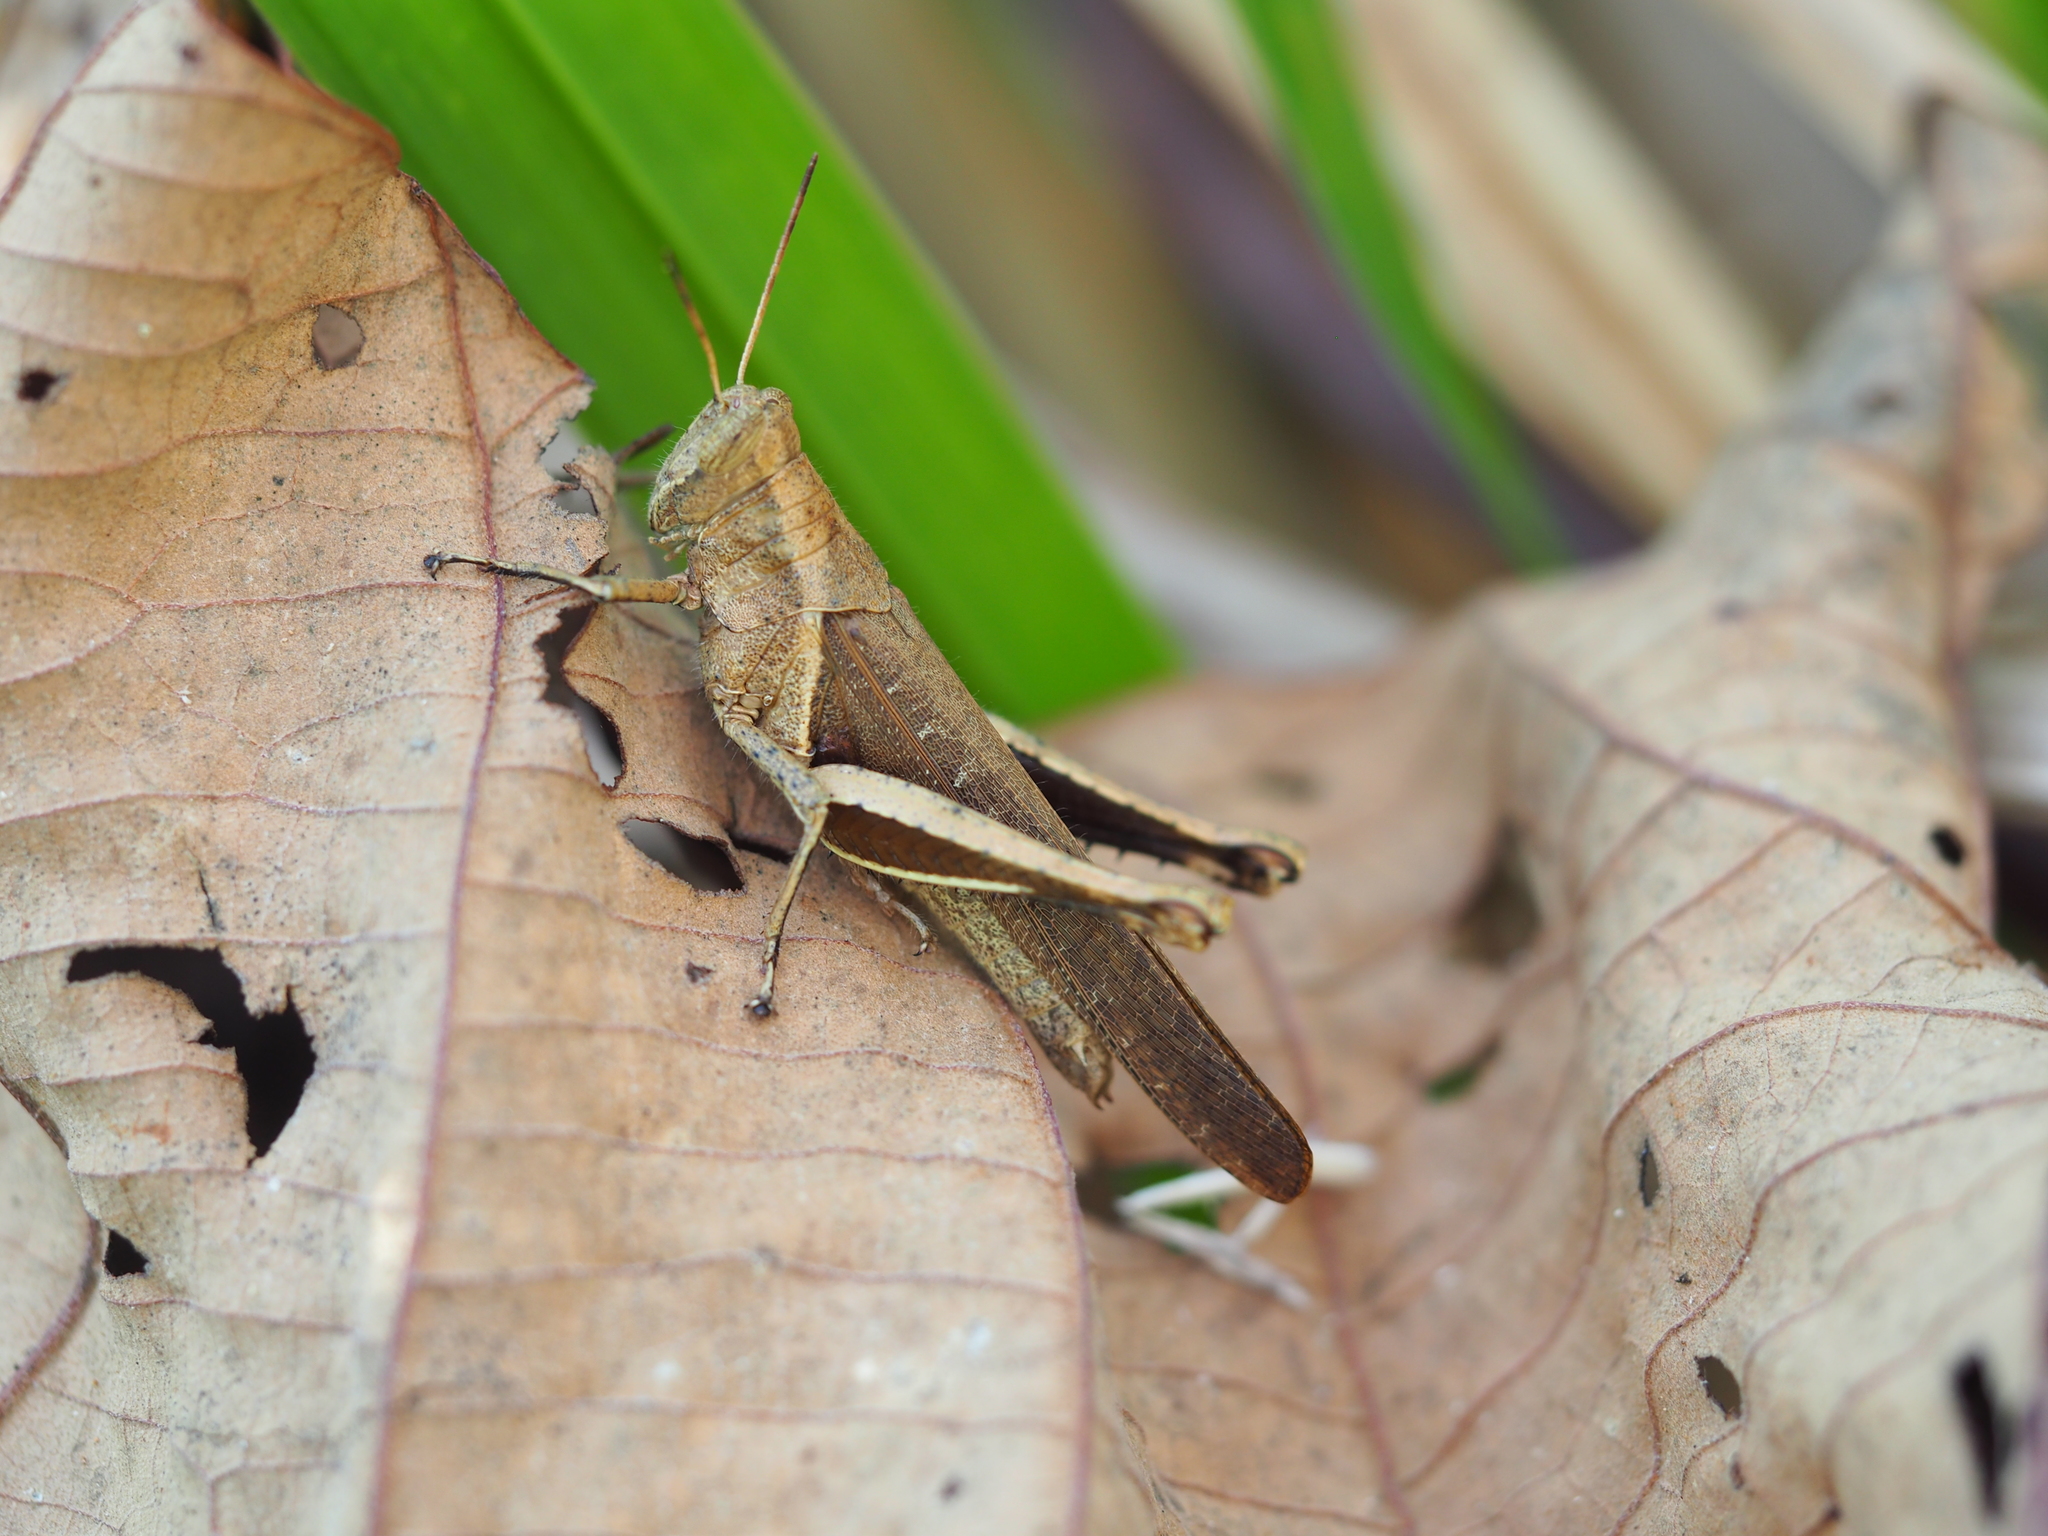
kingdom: Animalia
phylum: Arthropoda
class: Insecta
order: Orthoptera
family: Acrididae
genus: Abracris
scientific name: Abracris flavolineata
